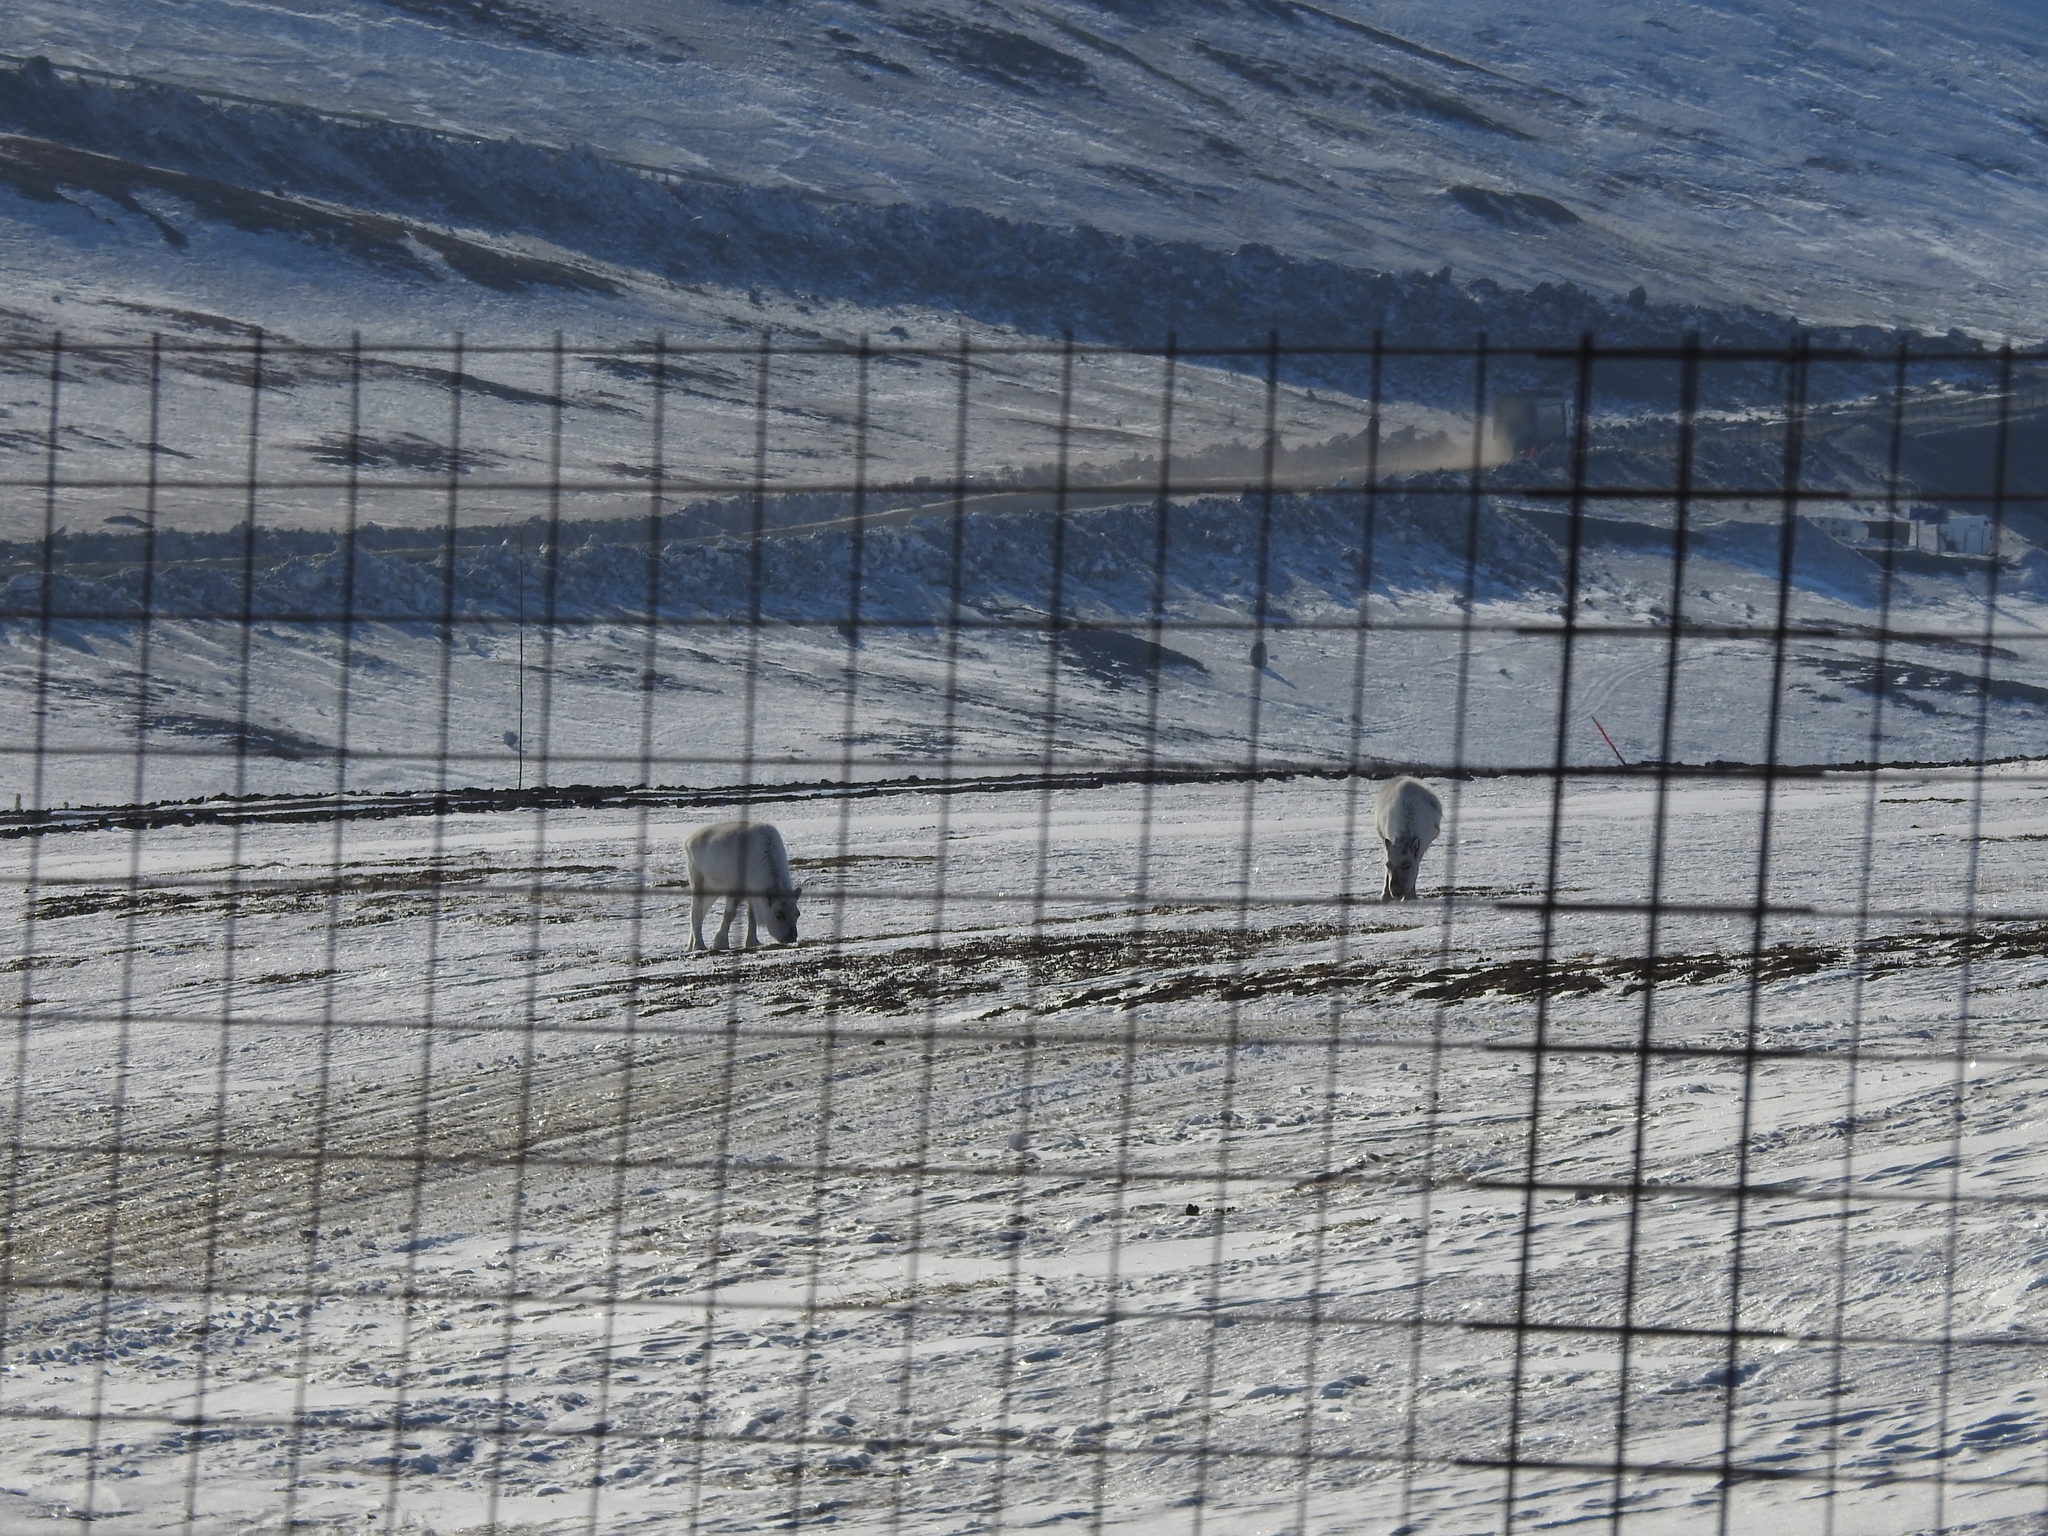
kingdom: Animalia
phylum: Chordata
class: Mammalia
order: Artiodactyla
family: Cervidae
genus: Rangifer
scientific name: Rangifer tarandus
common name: Reindeer
